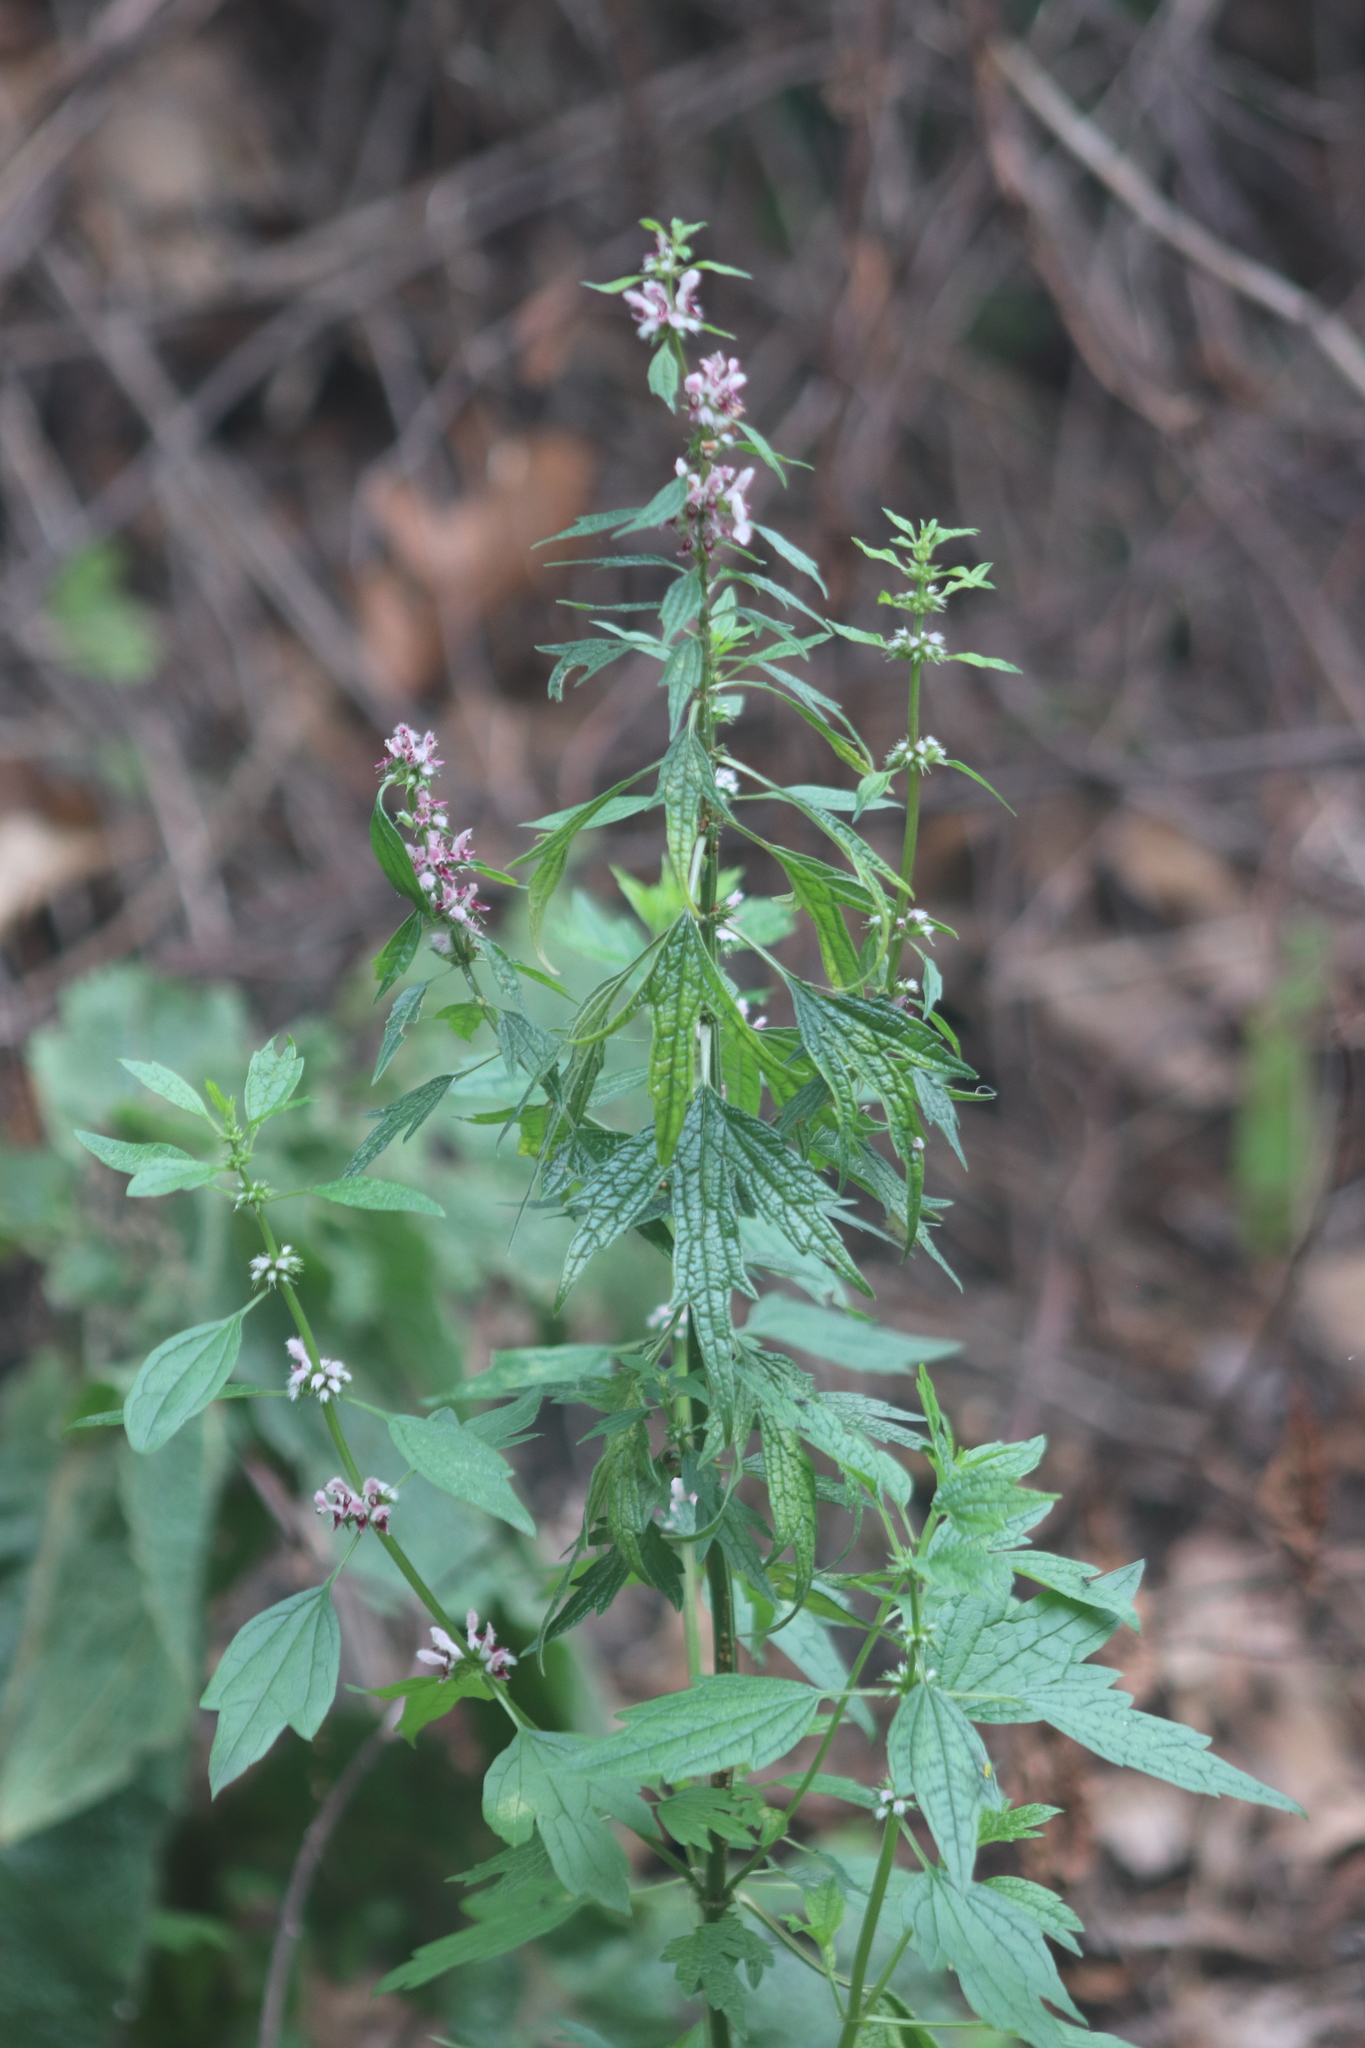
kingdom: Plantae
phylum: Tracheophyta
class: Magnoliopsida
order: Lamiales
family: Lamiaceae
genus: Leonurus
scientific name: Leonurus cardiaca
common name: Motherwort
